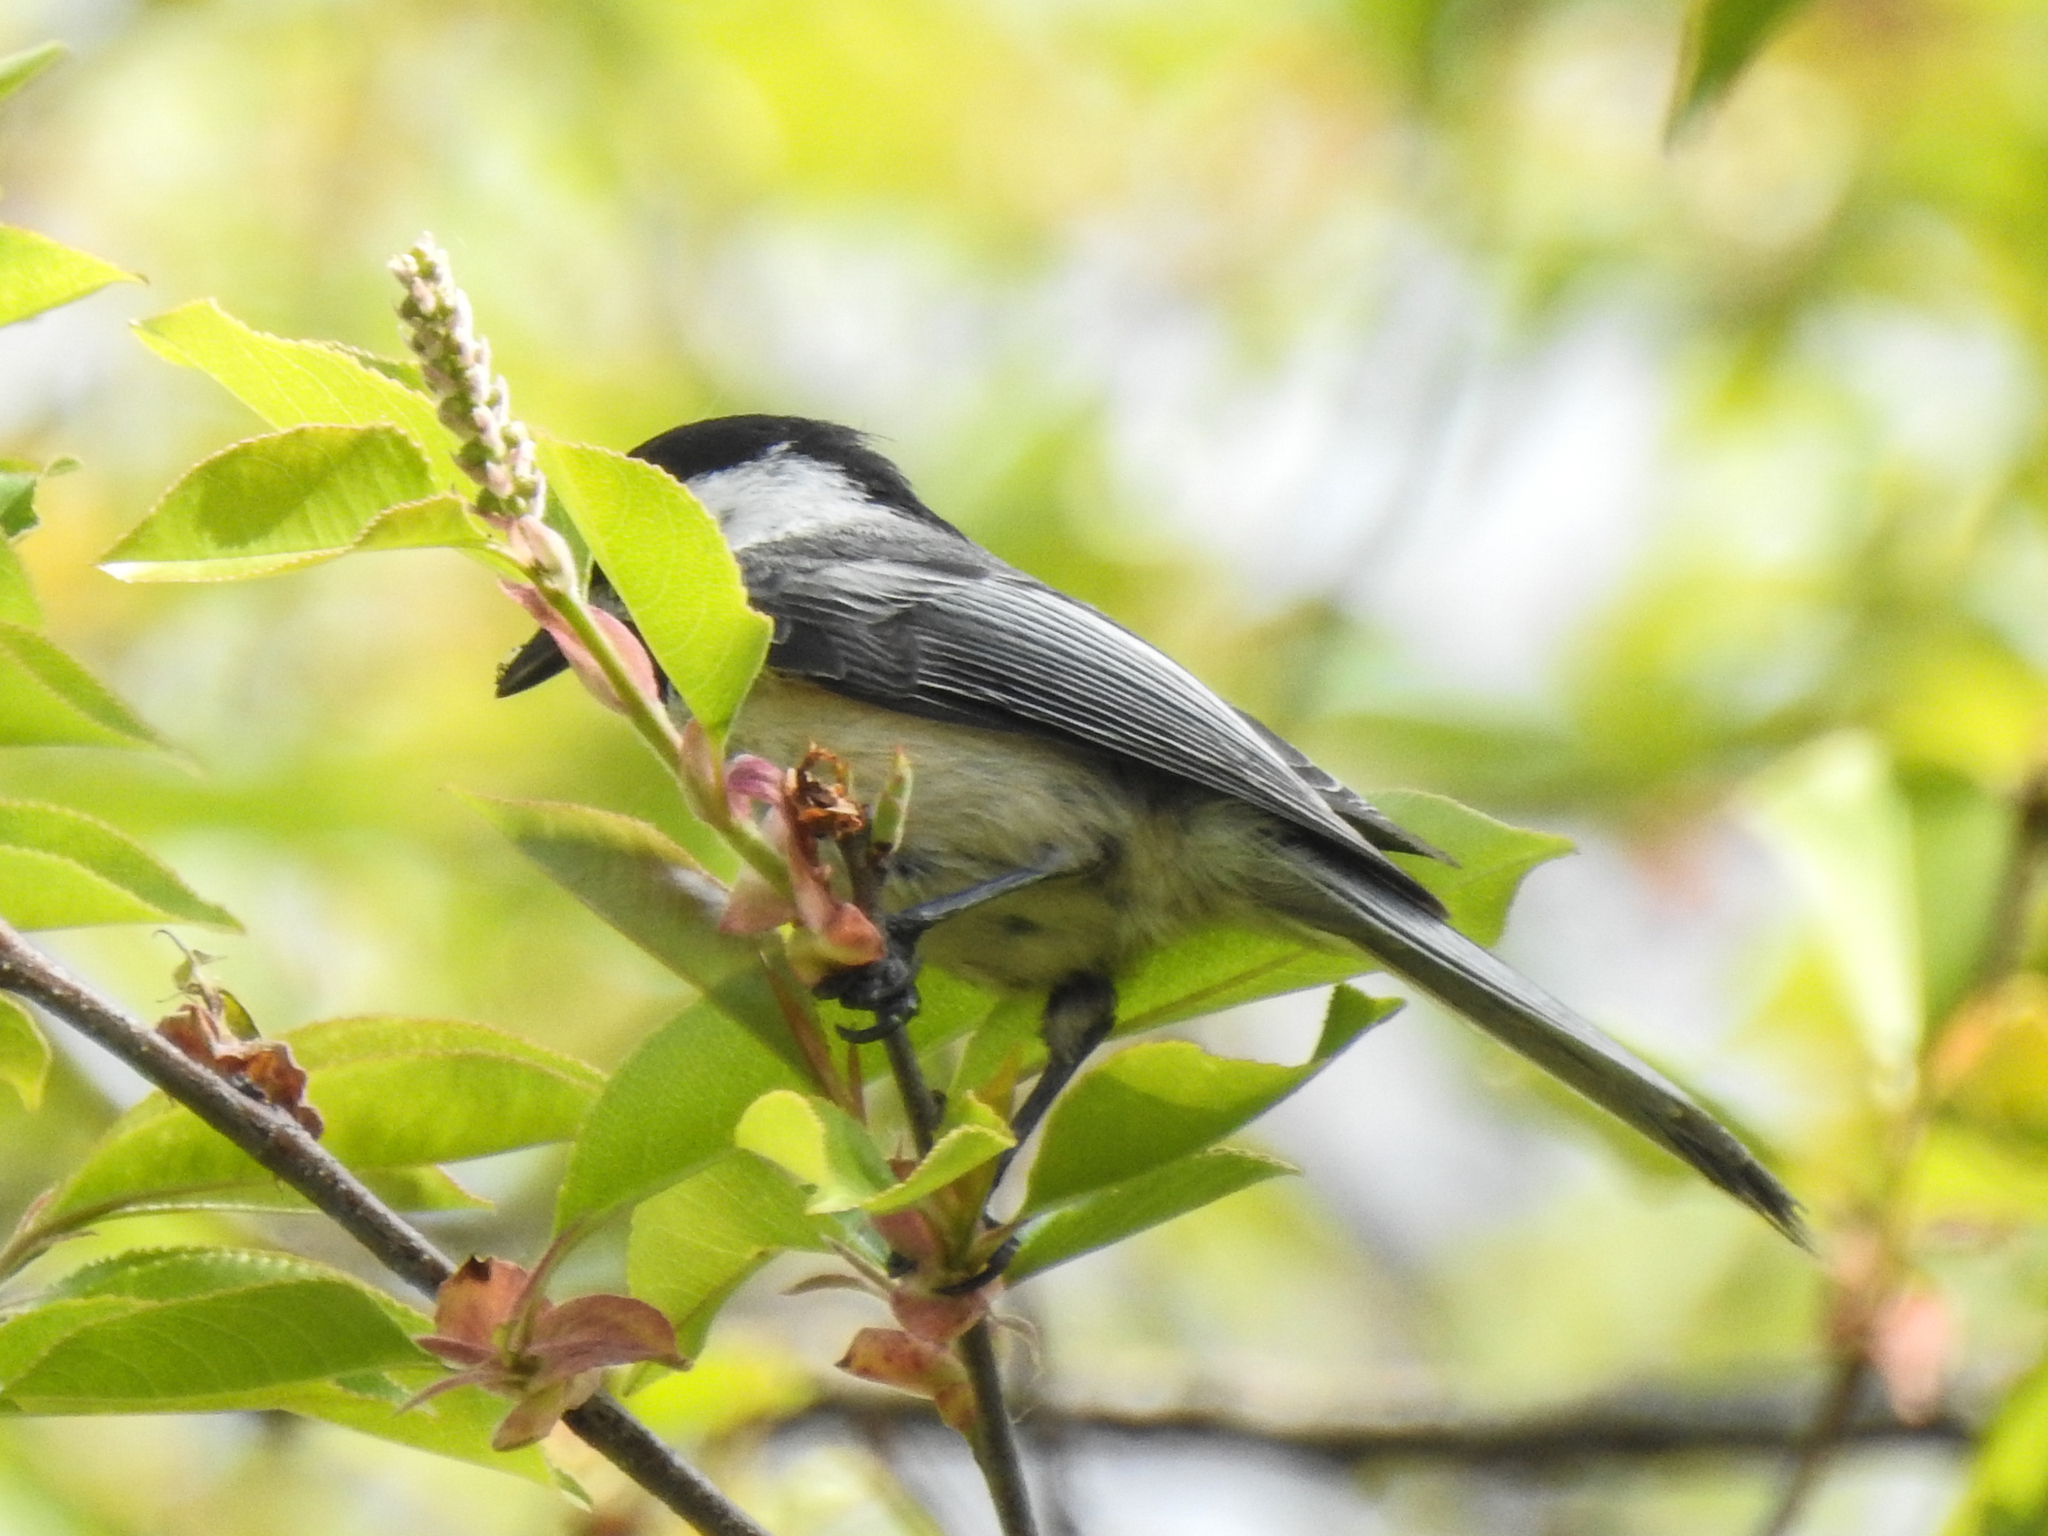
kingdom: Animalia
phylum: Chordata
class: Aves
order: Passeriformes
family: Paridae
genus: Poecile
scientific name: Poecile atricapillus
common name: Black-capped chickadee
